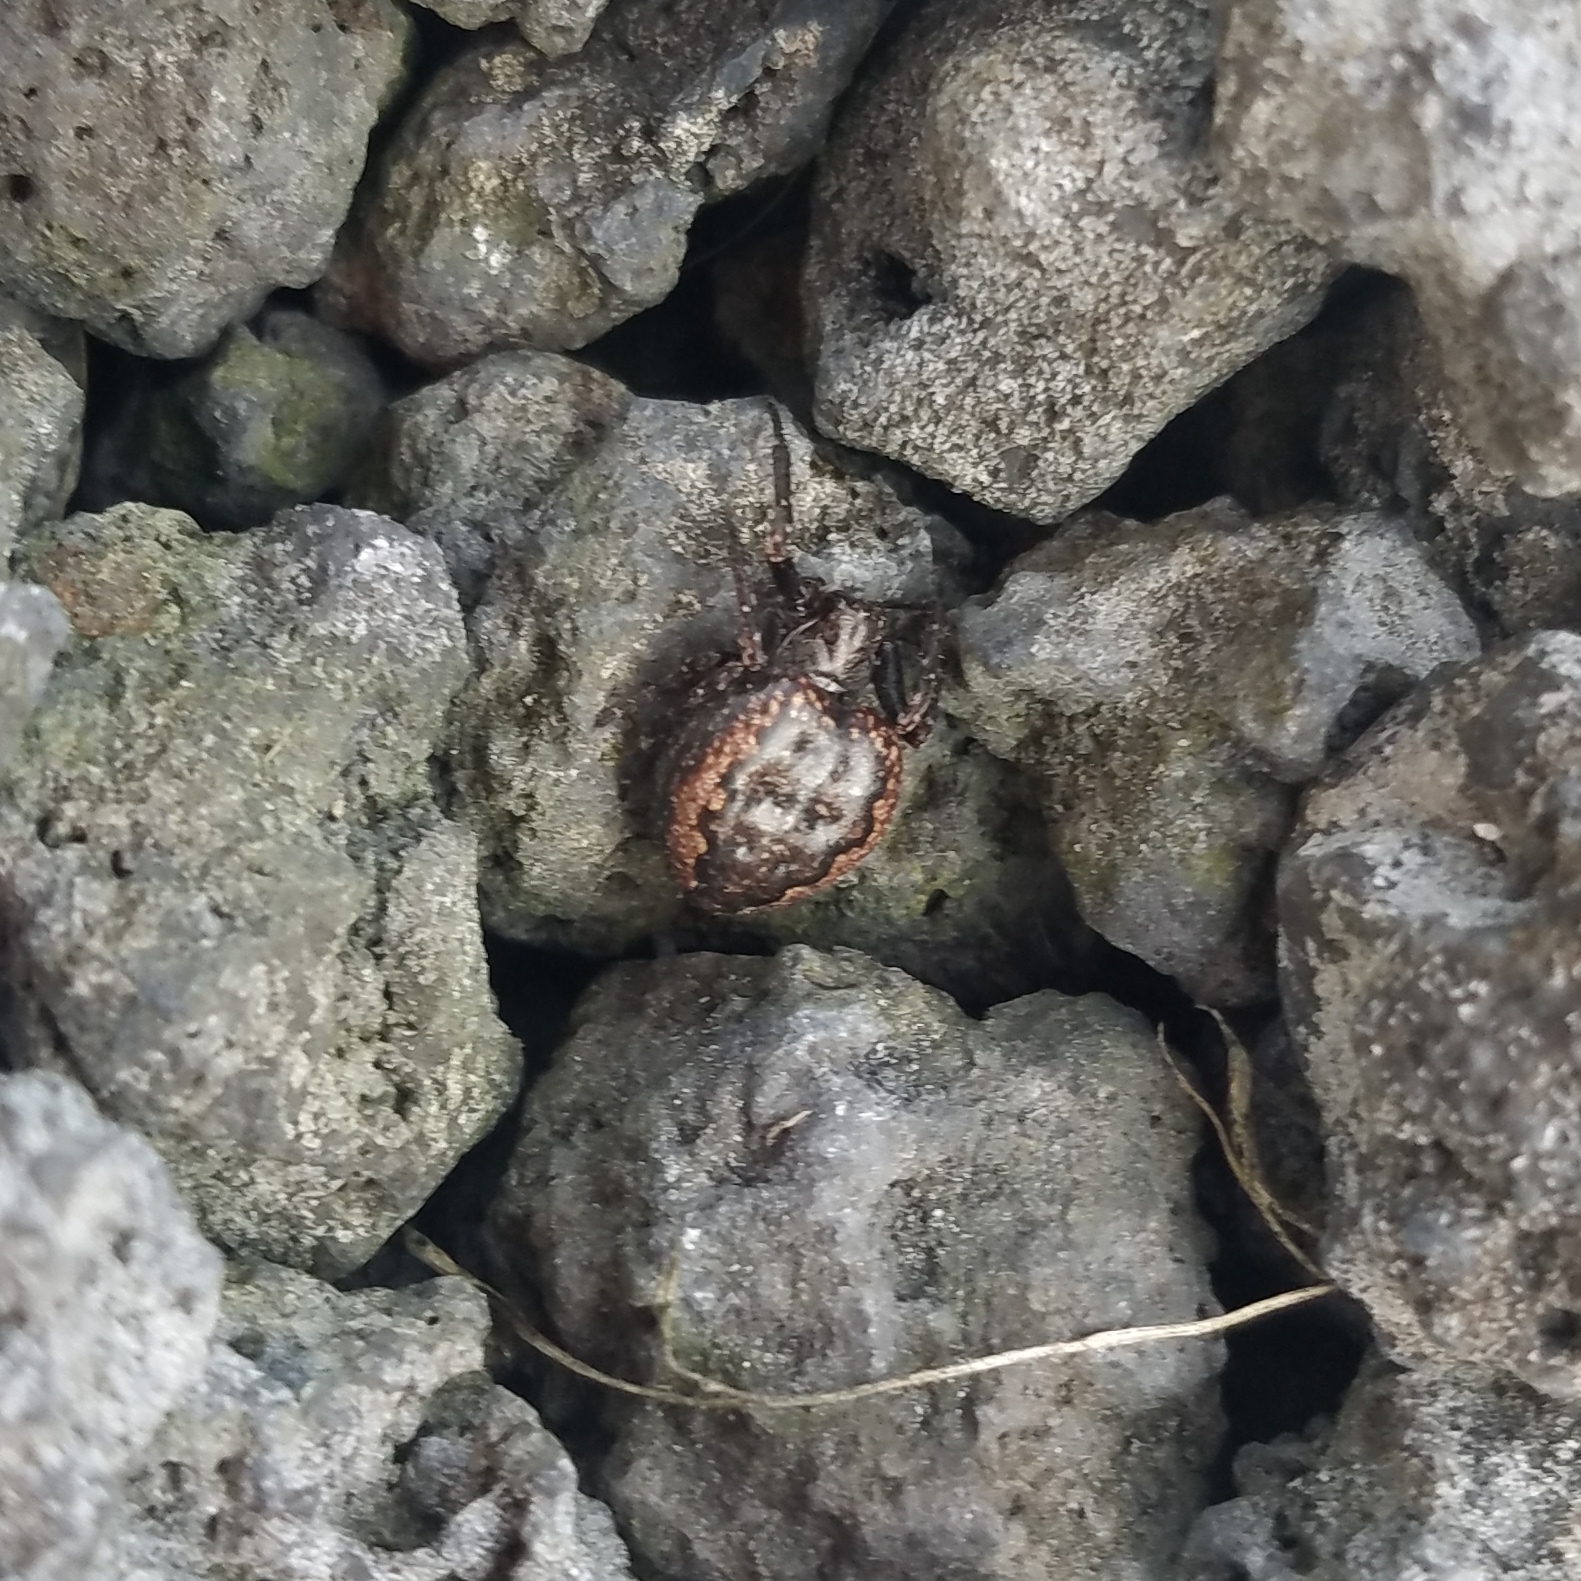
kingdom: Animalia
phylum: Arthropoda
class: Arachnida
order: Araneae
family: Araneidae
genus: Nuctenea
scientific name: Nuctenea umbratica
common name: Toad spider
